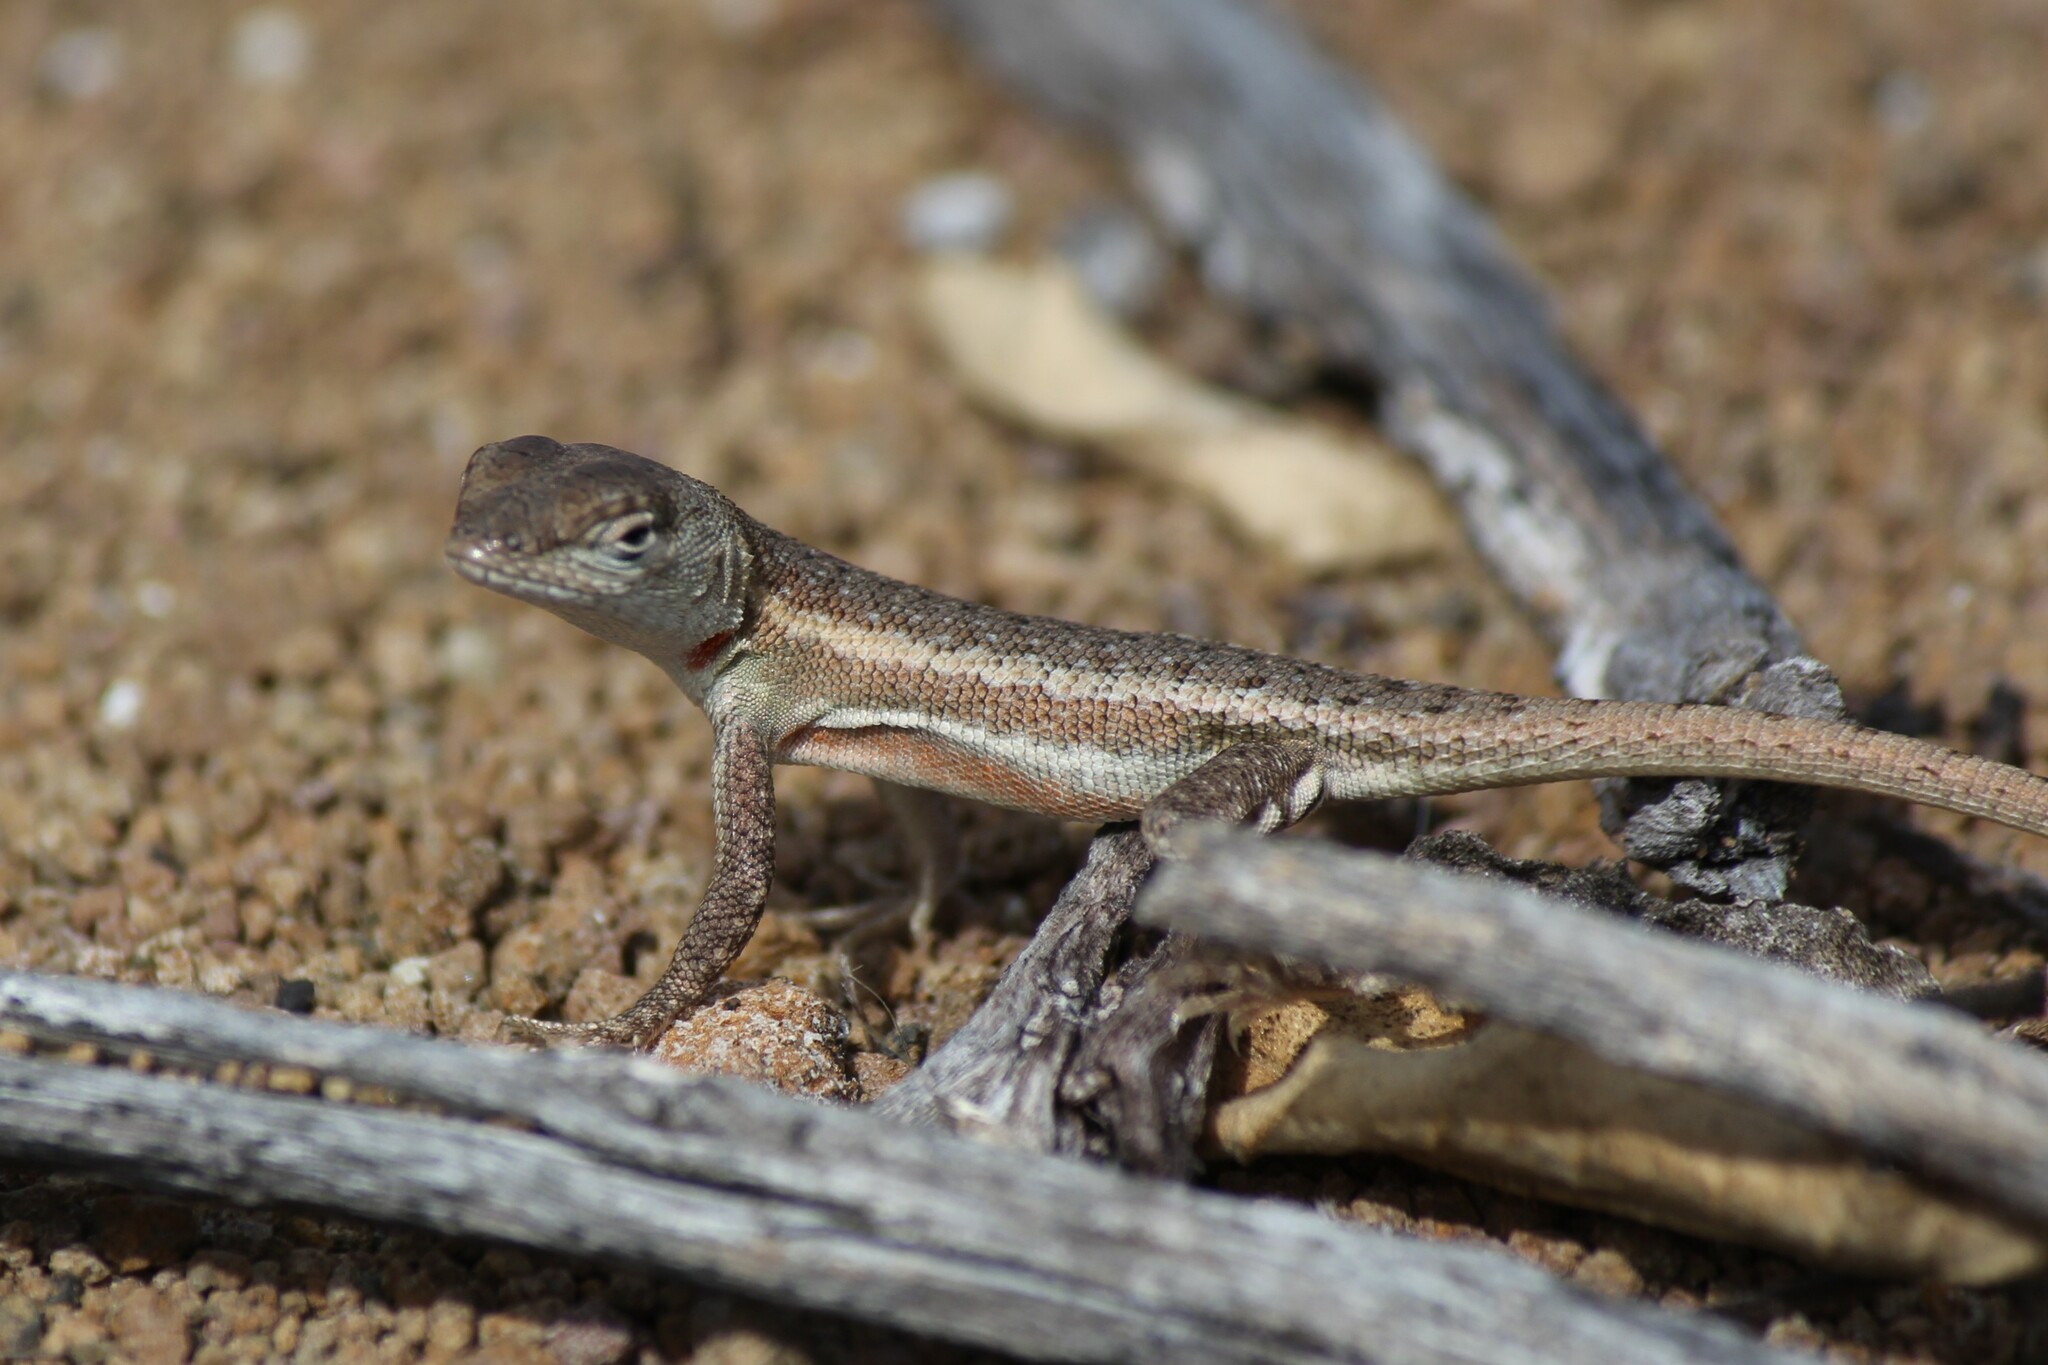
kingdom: Animalia
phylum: Chordata
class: Squamata
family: Tropiduridae
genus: Microlophus
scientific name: Microlophus bivittatus
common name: San cristobal lava lizard
